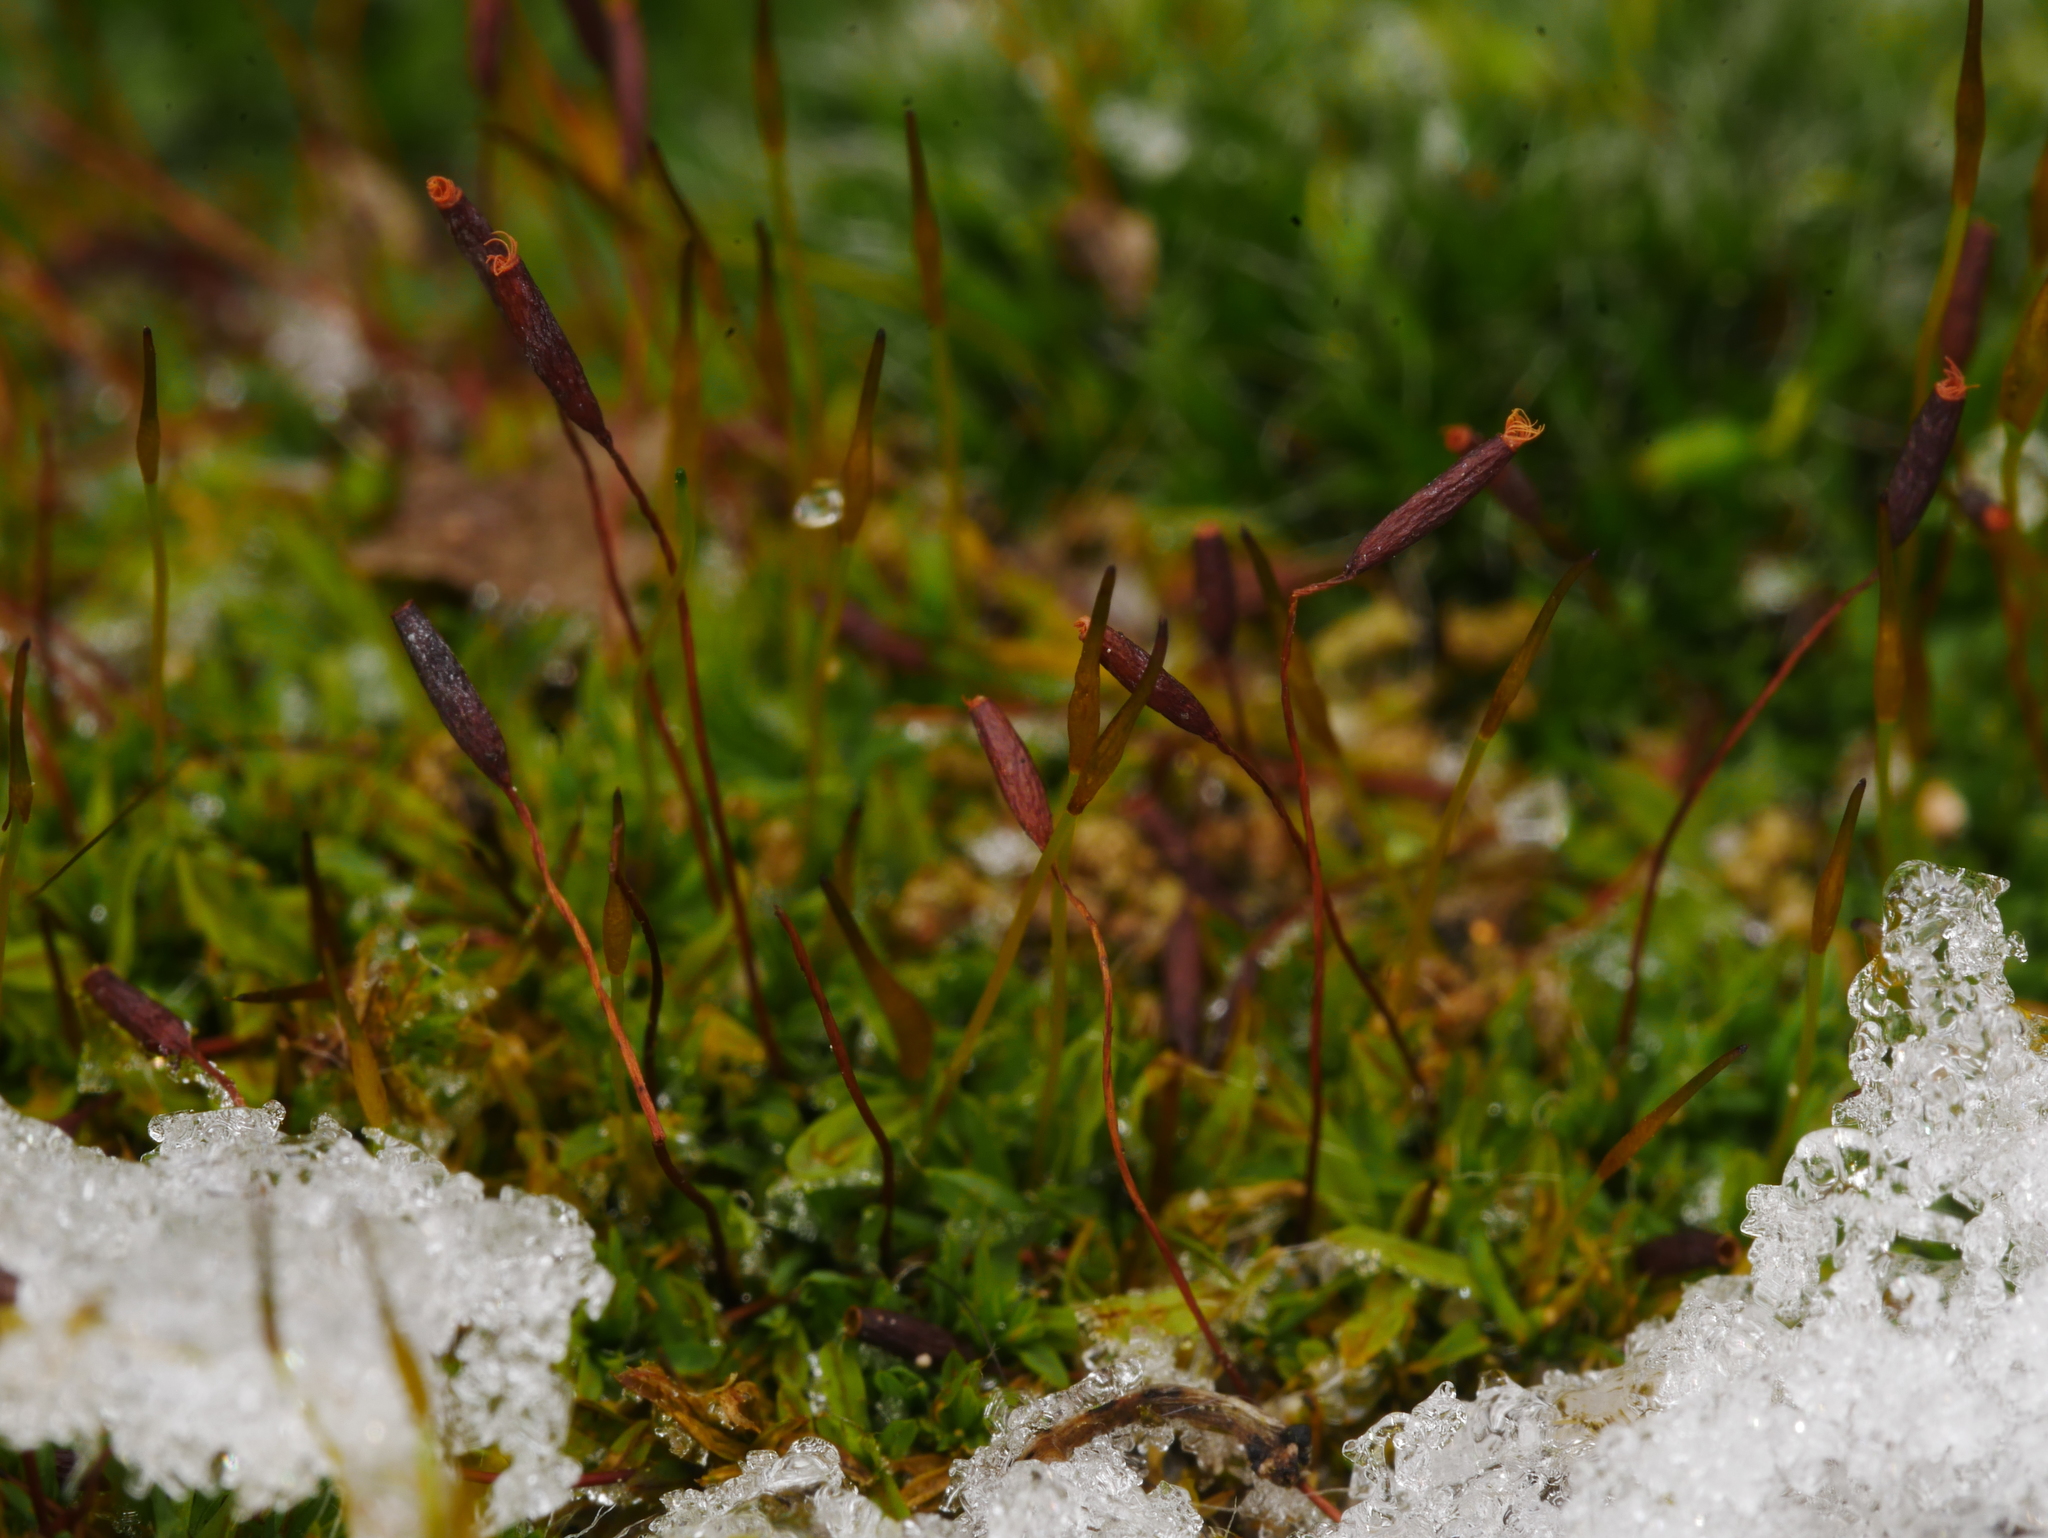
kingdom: Plantae
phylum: Bryophyta
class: Bryopsida
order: Pottiales
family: Pottiaceae
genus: Tortula
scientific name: Tortula muralis
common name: Wall screw-moss
